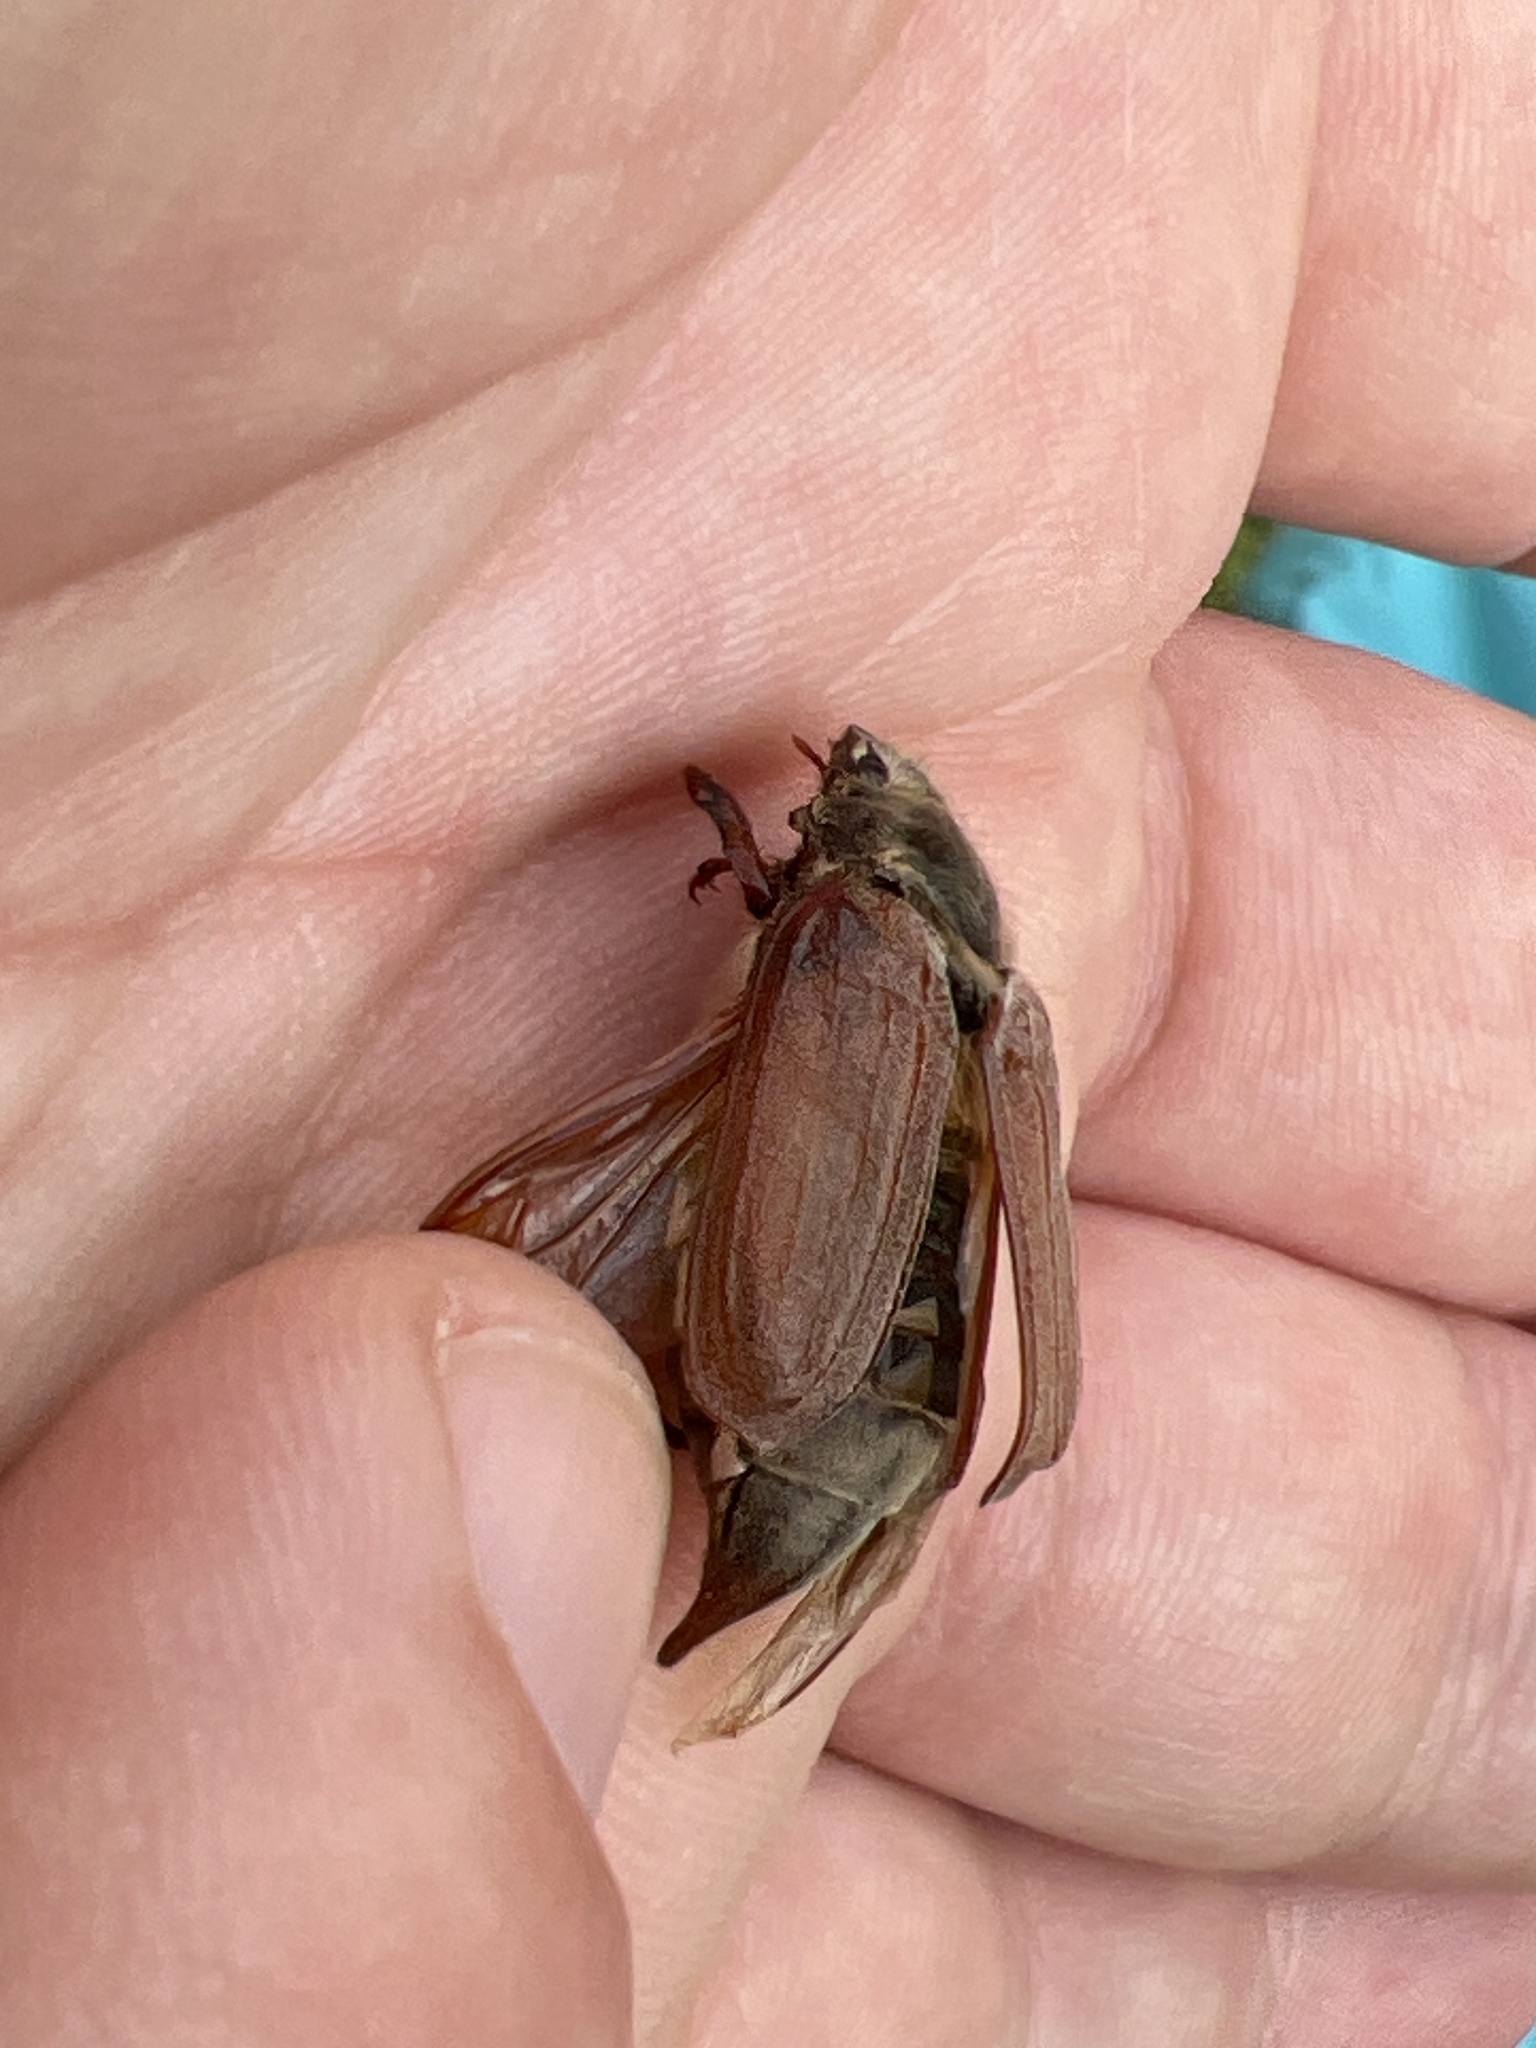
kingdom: Animalia
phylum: Arthropoda
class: Insecta
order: Coleoptera
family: Scarabaeidae
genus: Melolontha
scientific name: Melolontha melolontha
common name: Cockchafer maybeetle
